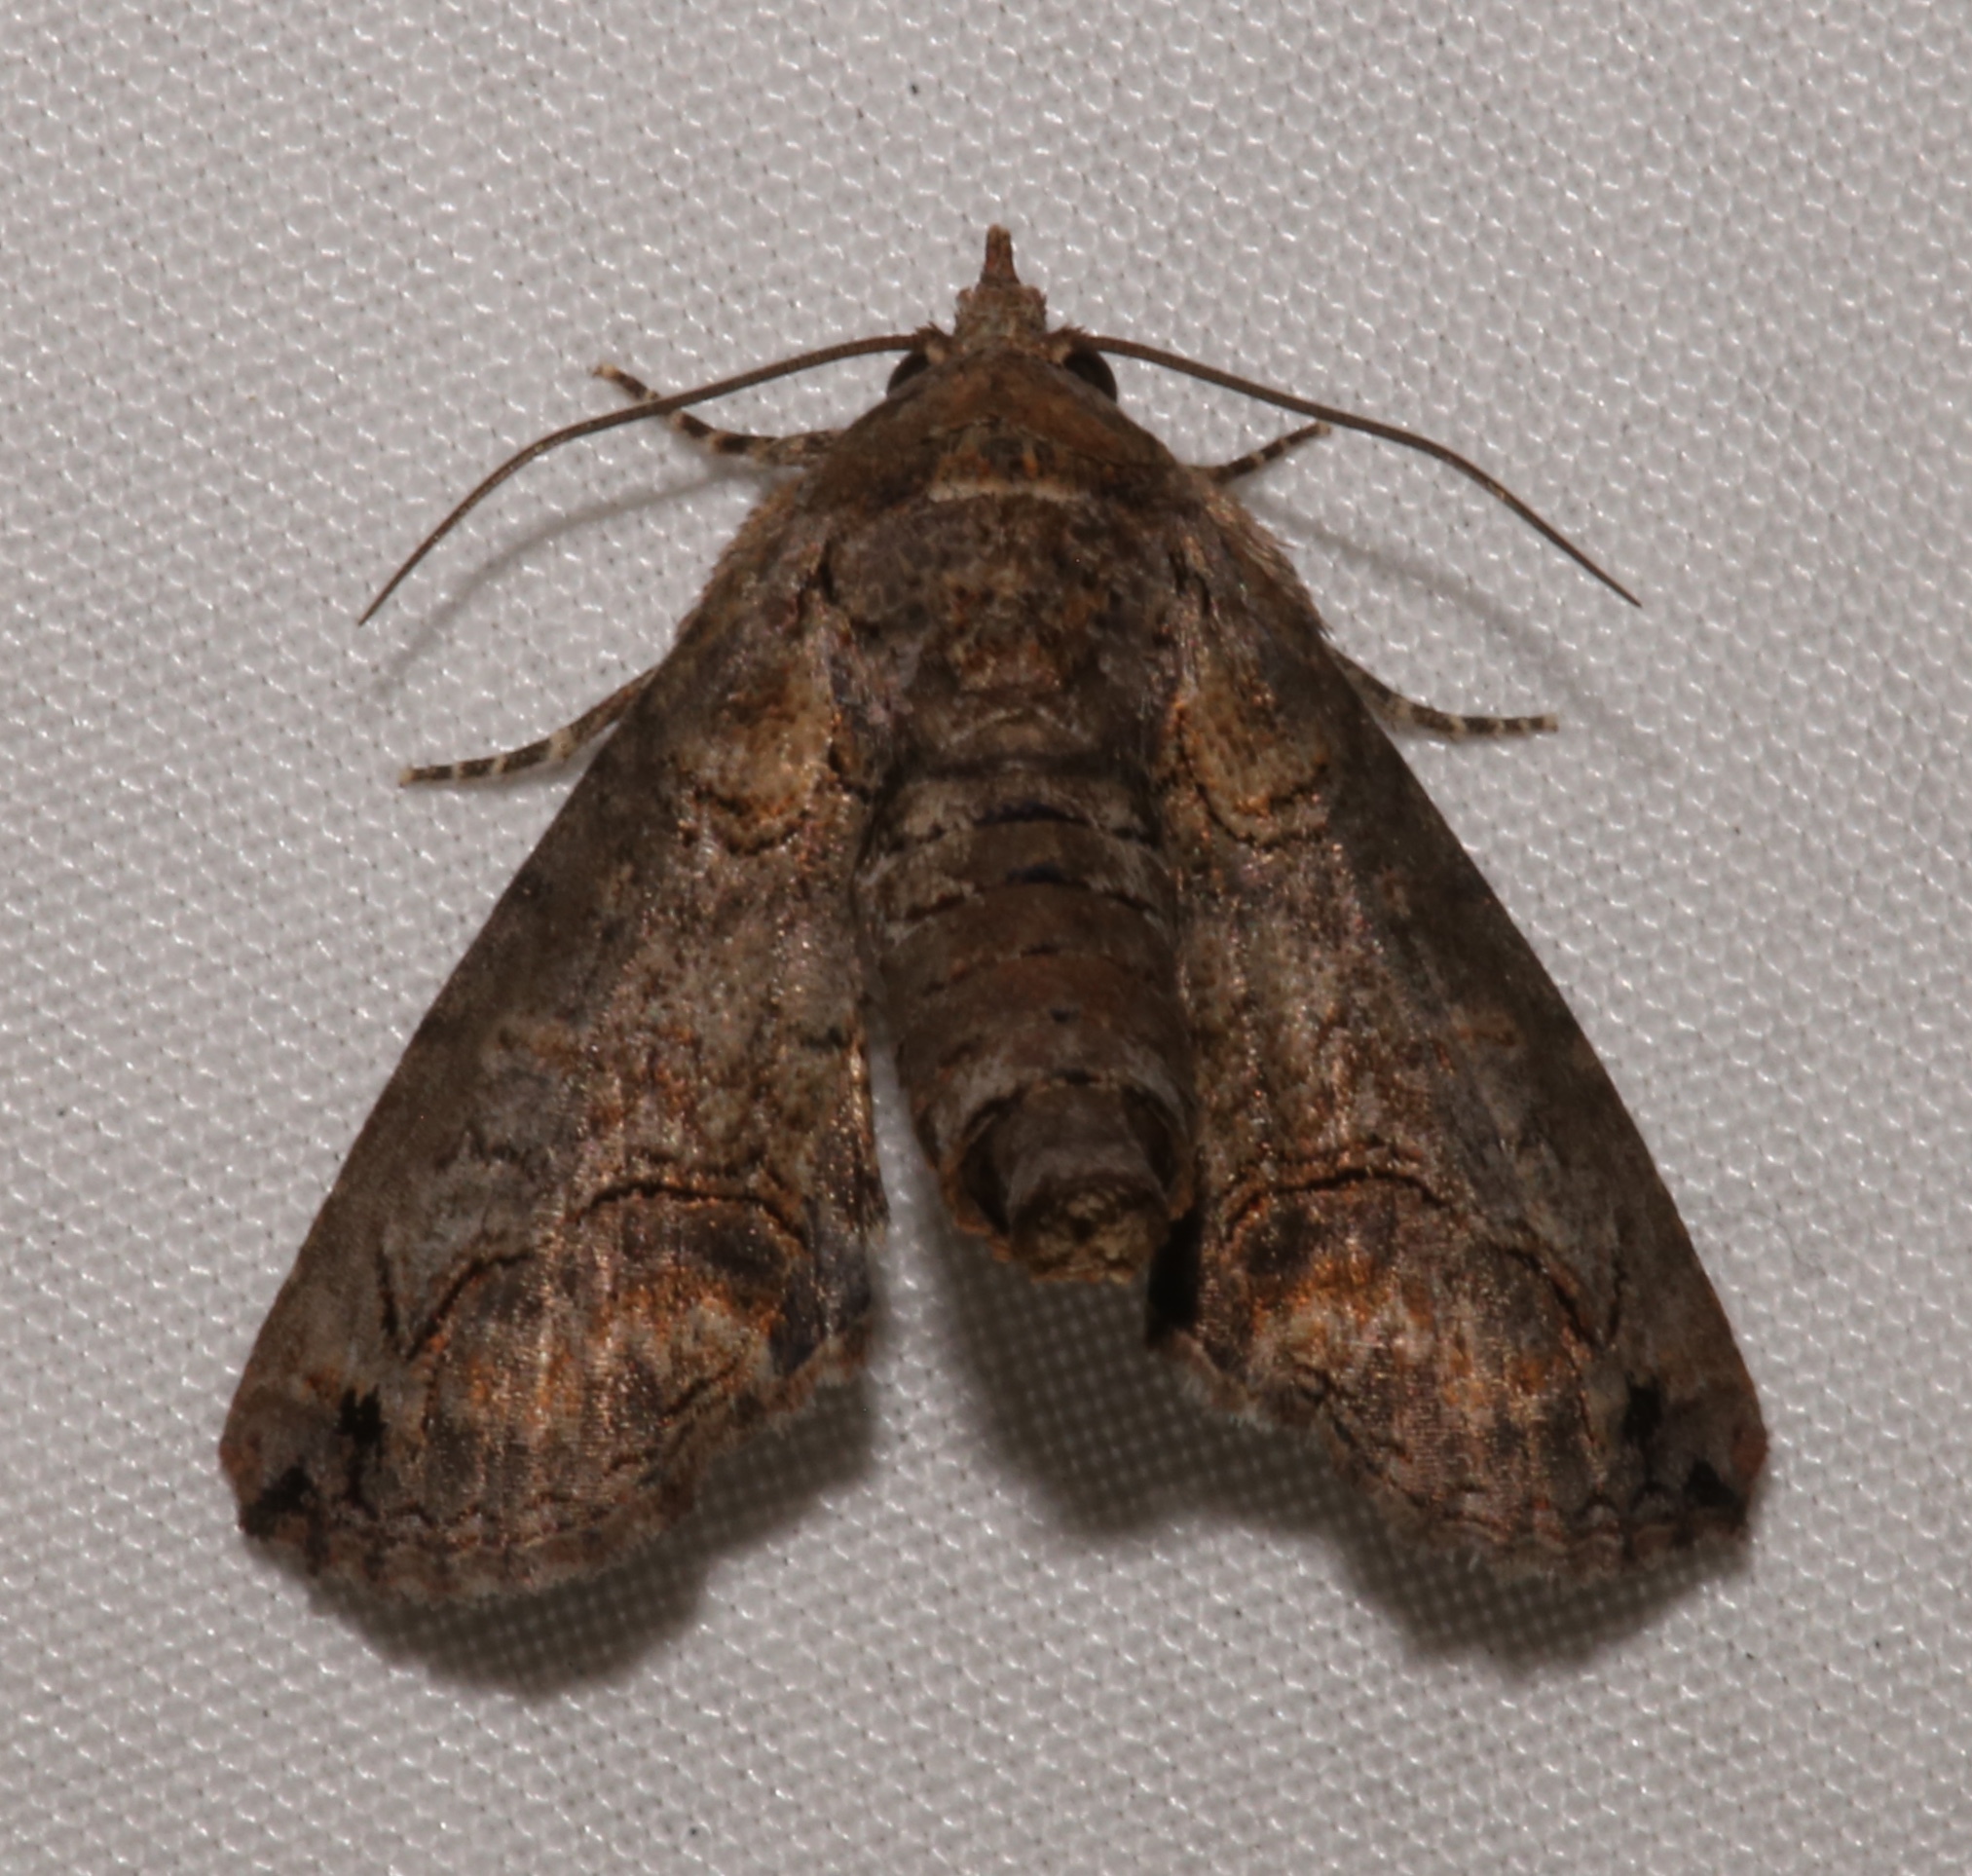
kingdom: Animalia
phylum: Arthropoda
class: Insecta
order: Lepidoptera
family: Euteliidae
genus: Paectes
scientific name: Paectes abrostoloides
